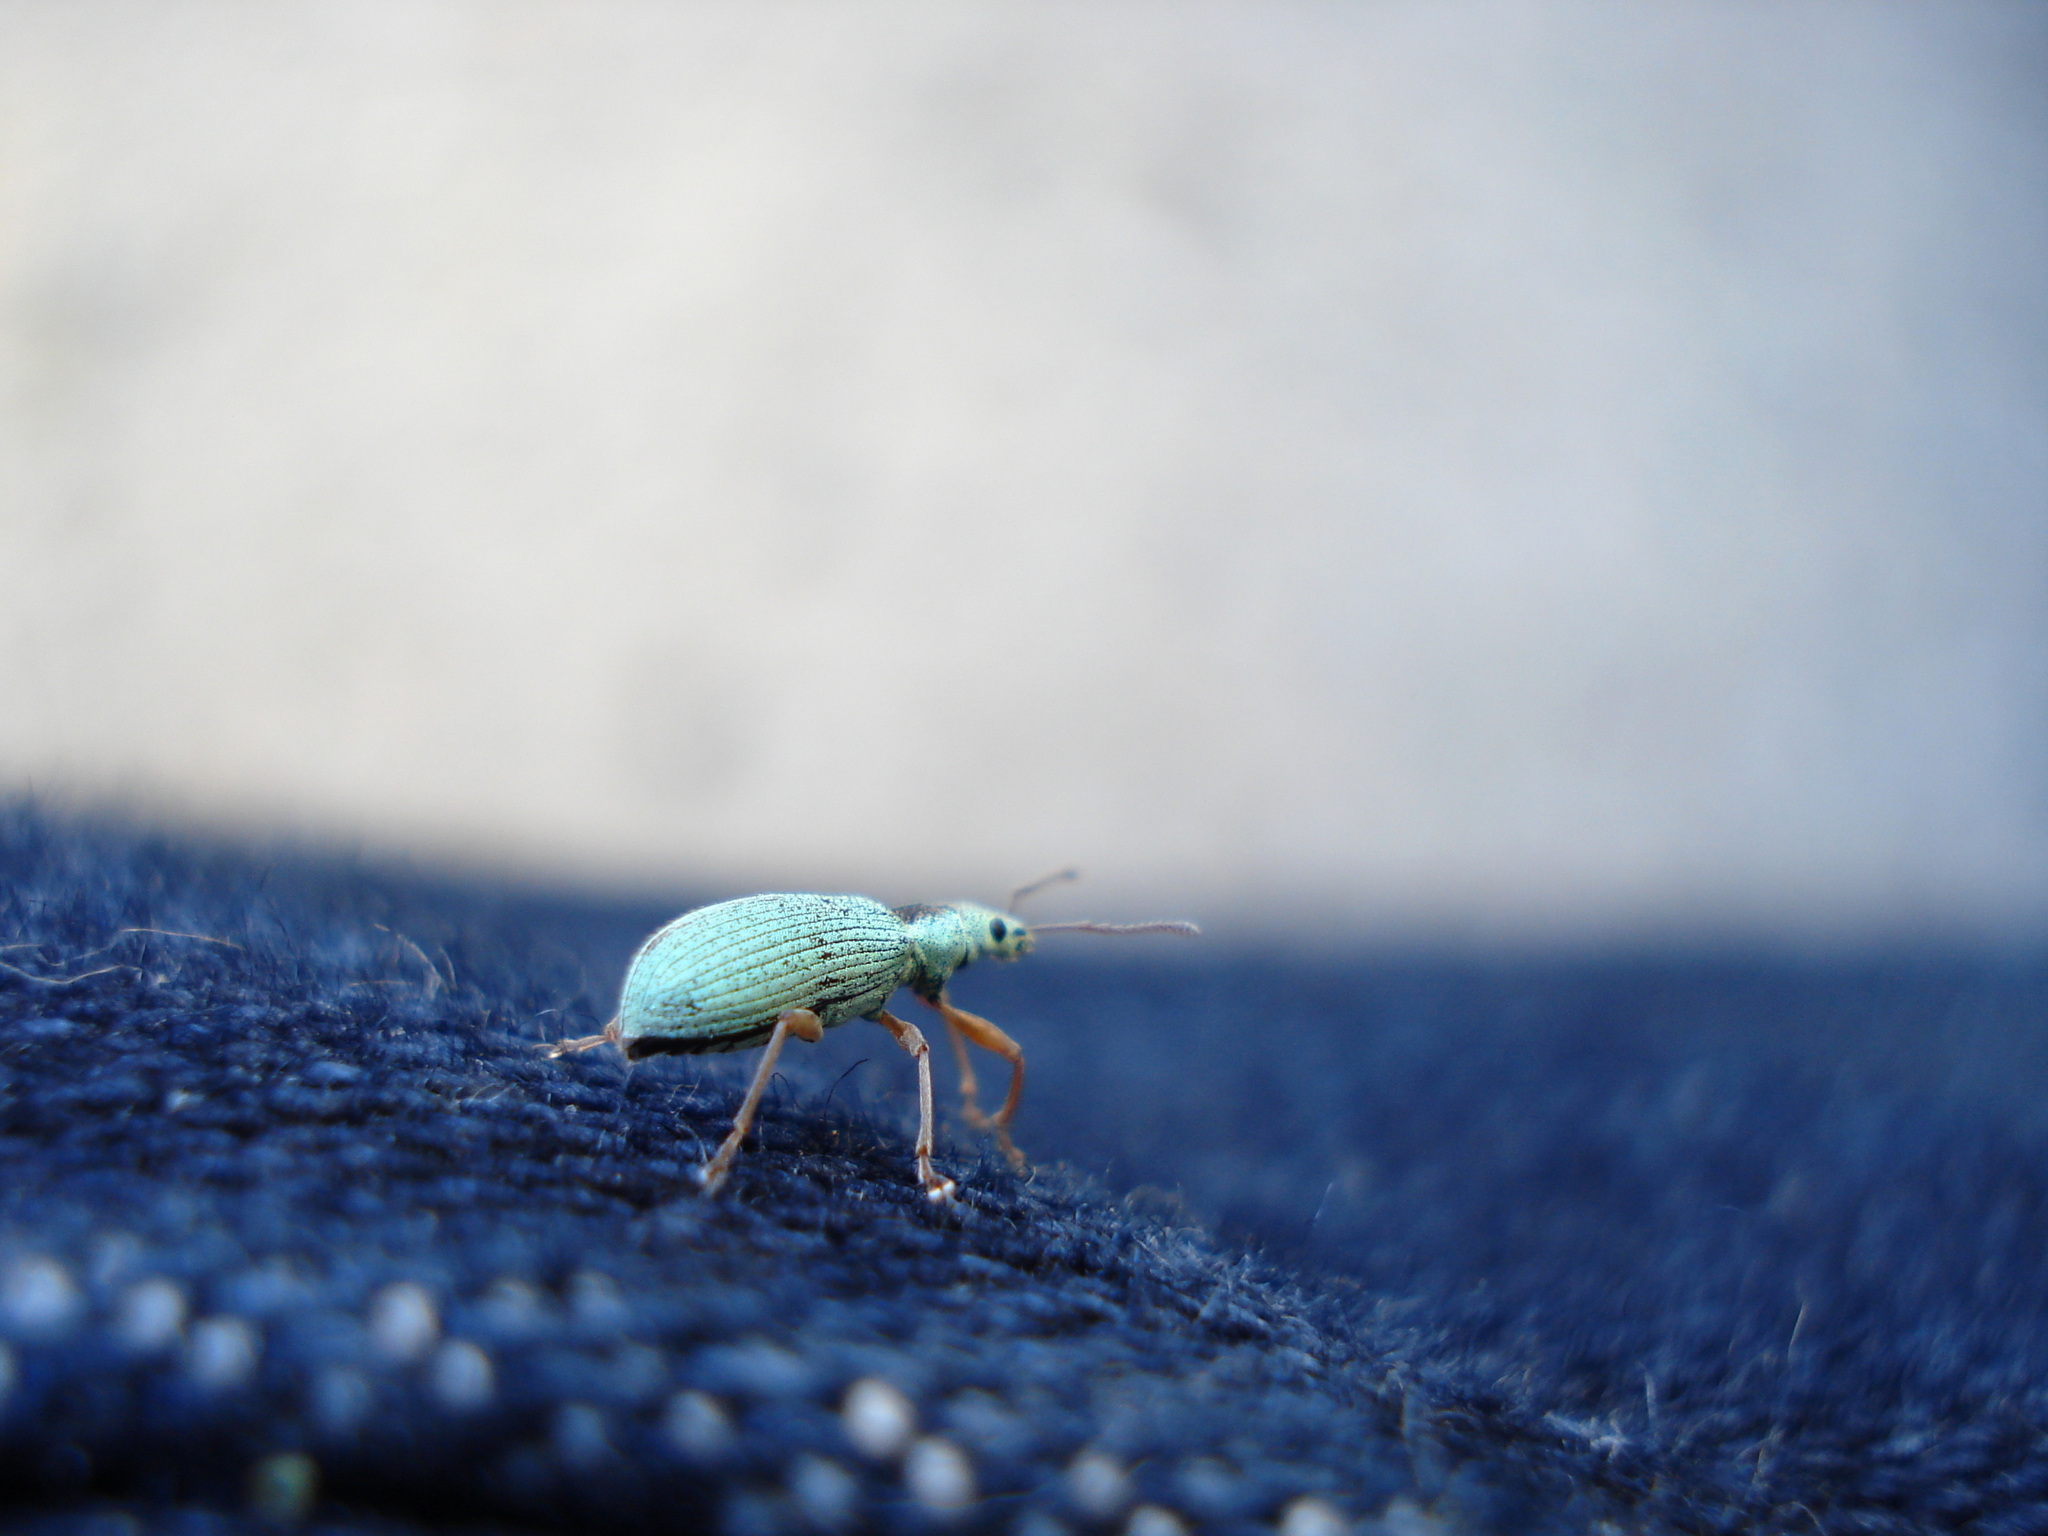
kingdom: Animalia
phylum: Arthropoda
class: Insecta
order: Coleoptera
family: Curculionidae
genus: Polydrusus
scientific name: Polydrusus impressifrons
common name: Weevil
